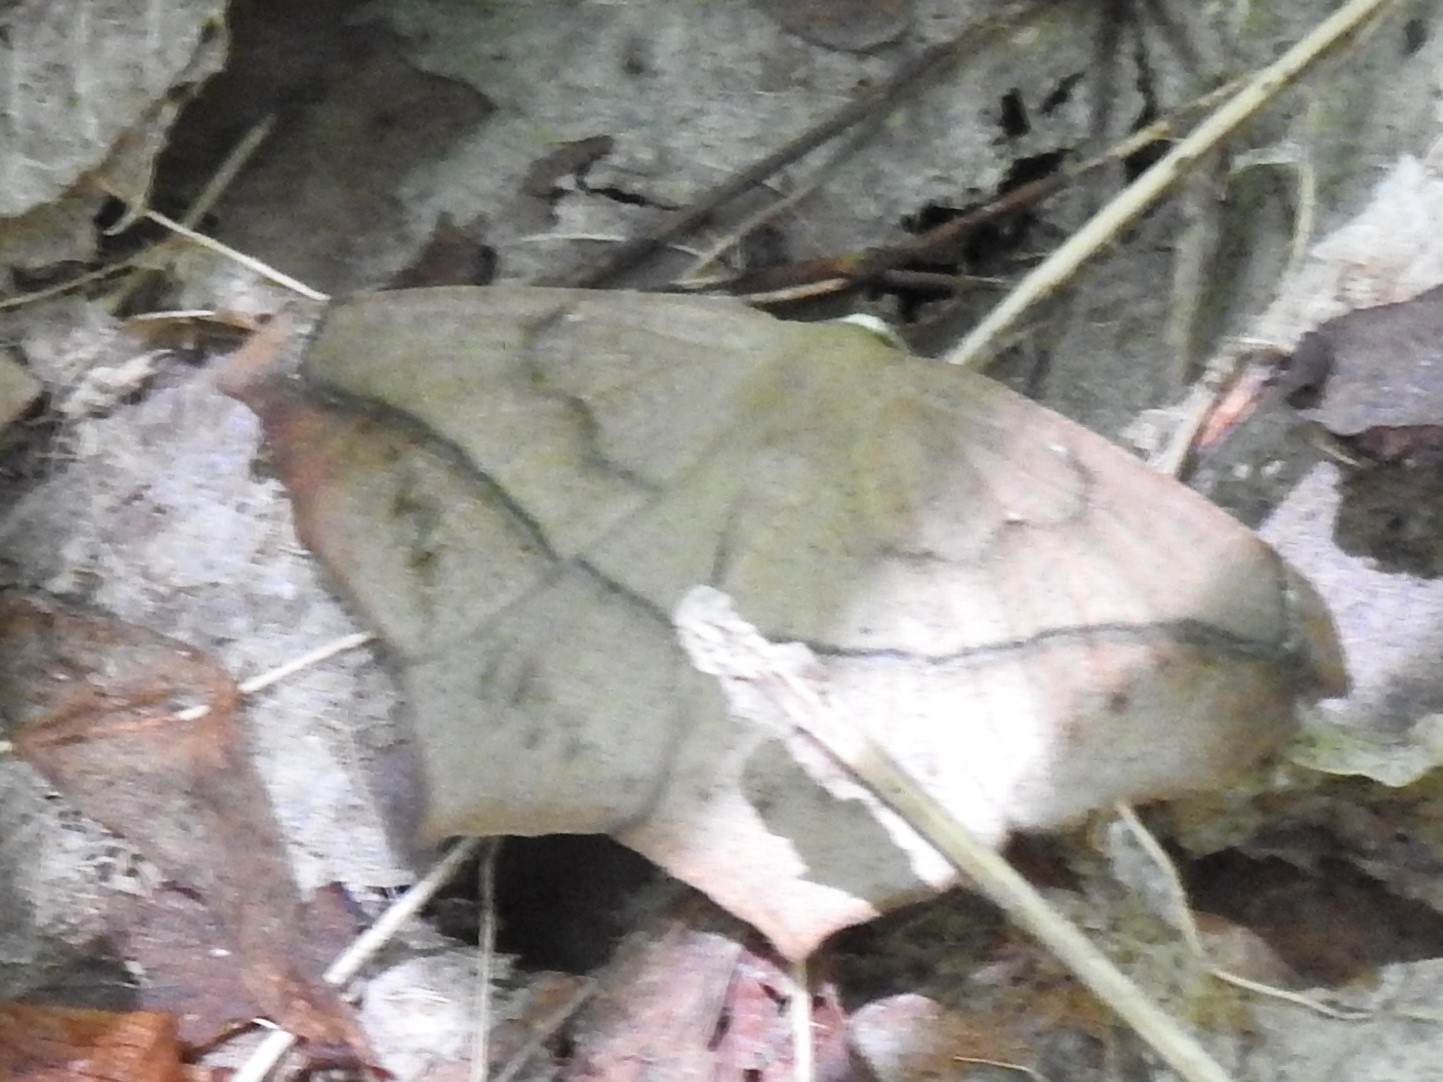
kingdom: Animalia
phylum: Arthropoda
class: Insecta
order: Lepidoptera
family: Geometridae
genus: Prochoerodes
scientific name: Prochoerodes lineola
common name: Large maple spanworm
